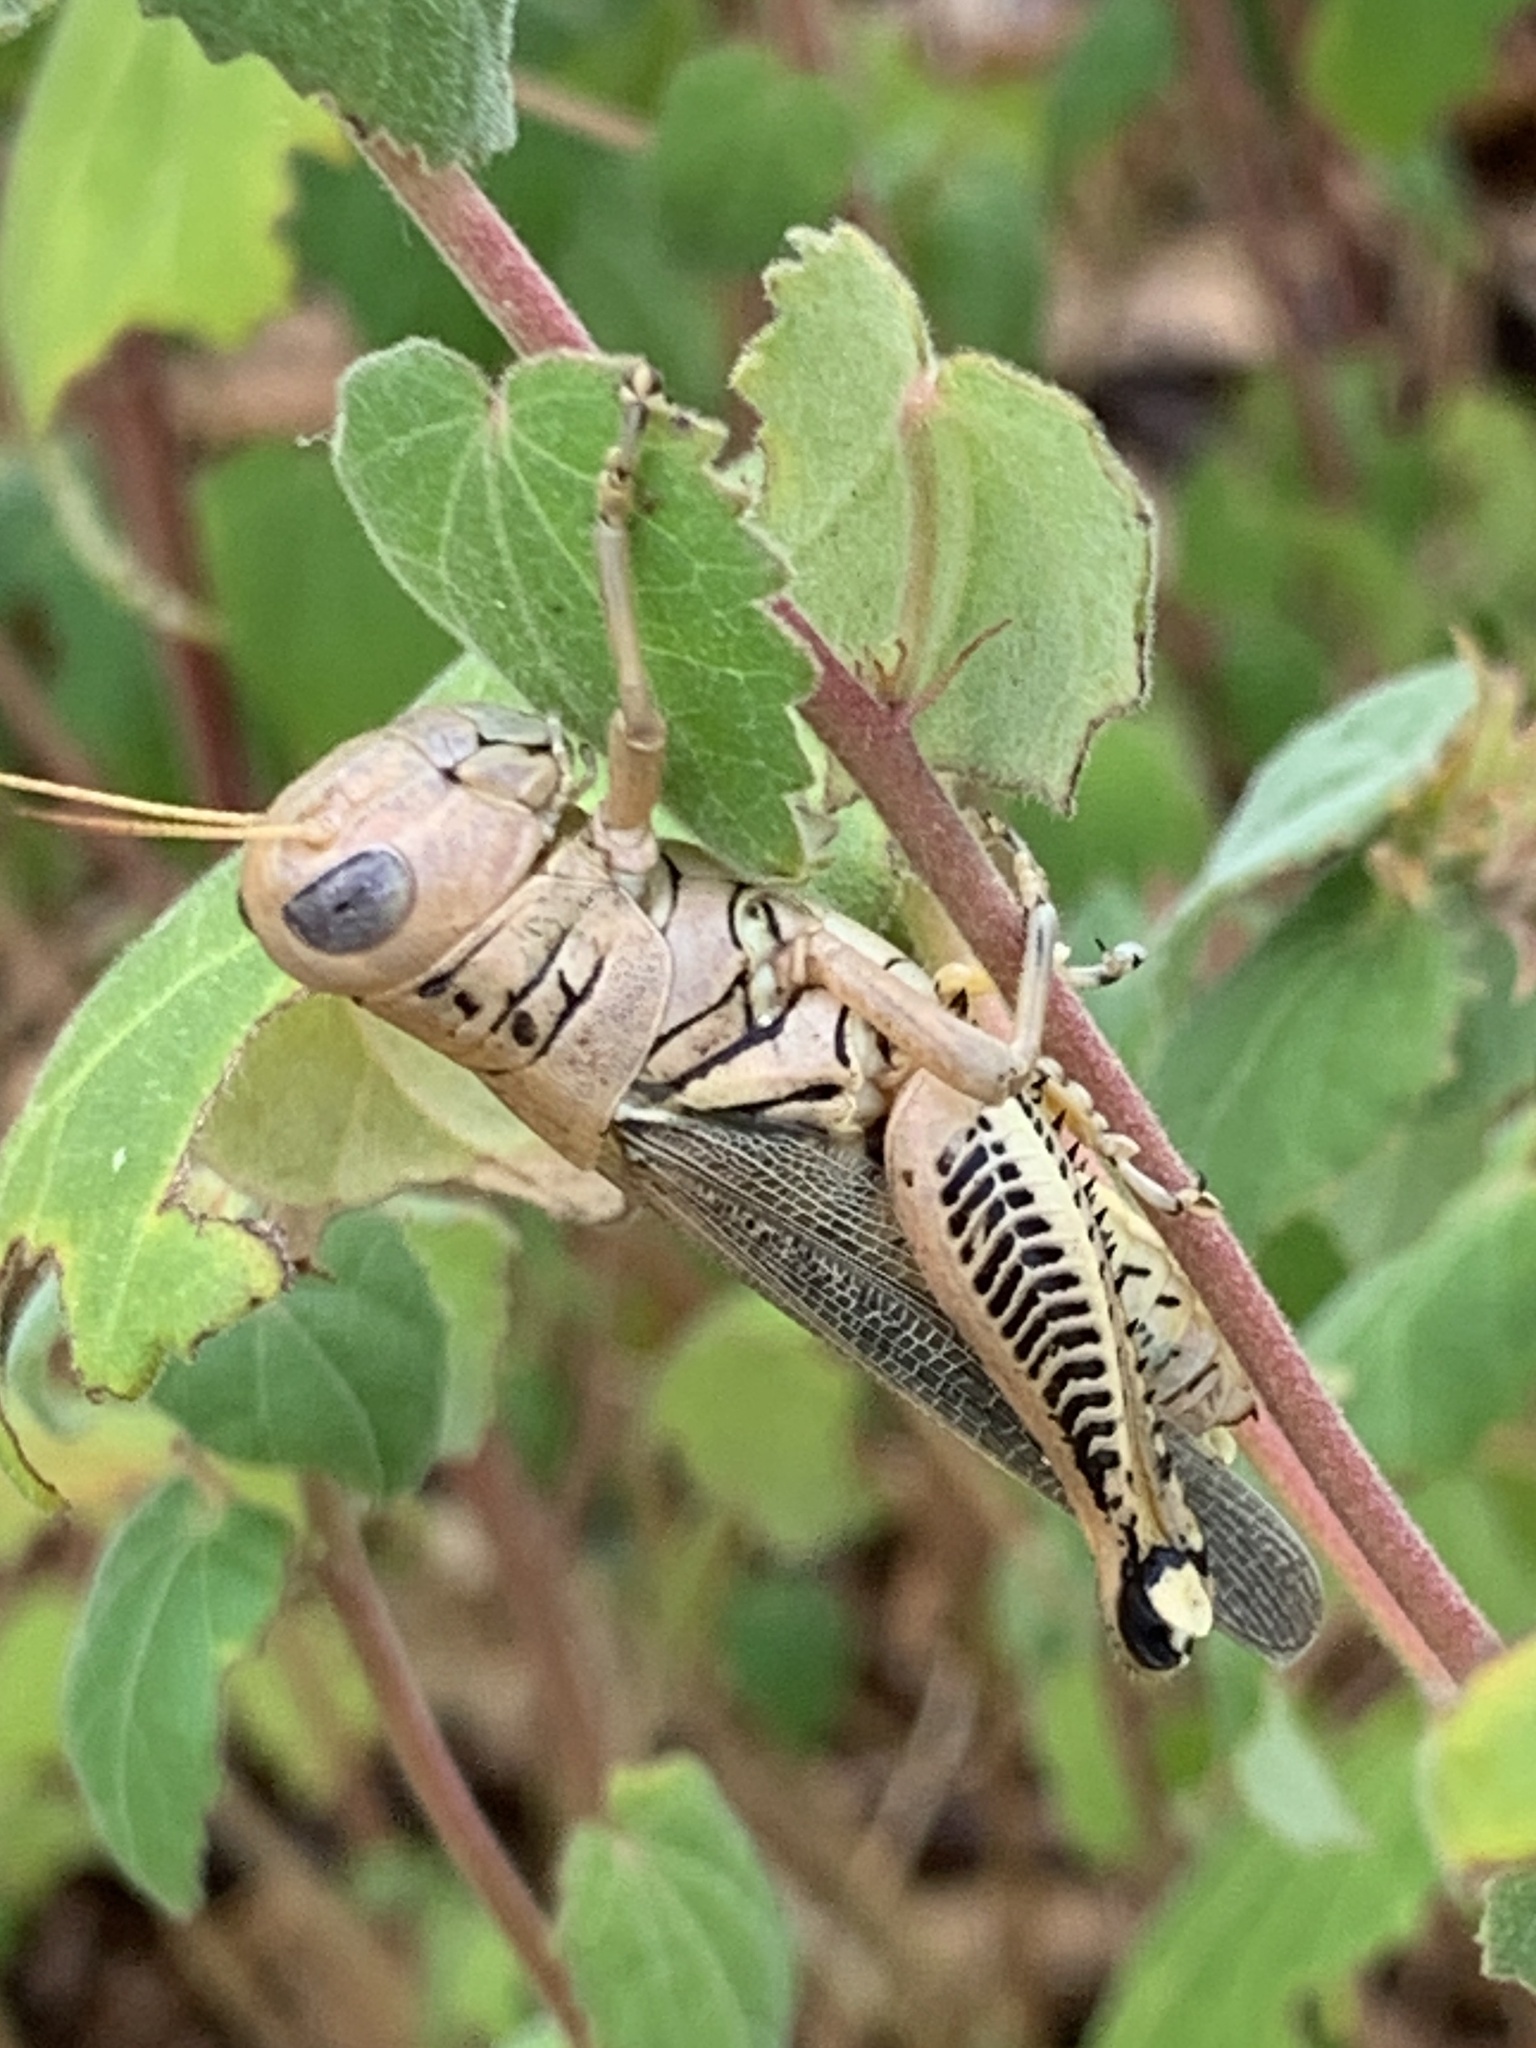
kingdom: Animalia
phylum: Arthropoda
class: Insecta
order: Orthoptera
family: Acrididae
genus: Melanoplus
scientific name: Melanoplus differentialis
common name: Differential grasshopper
